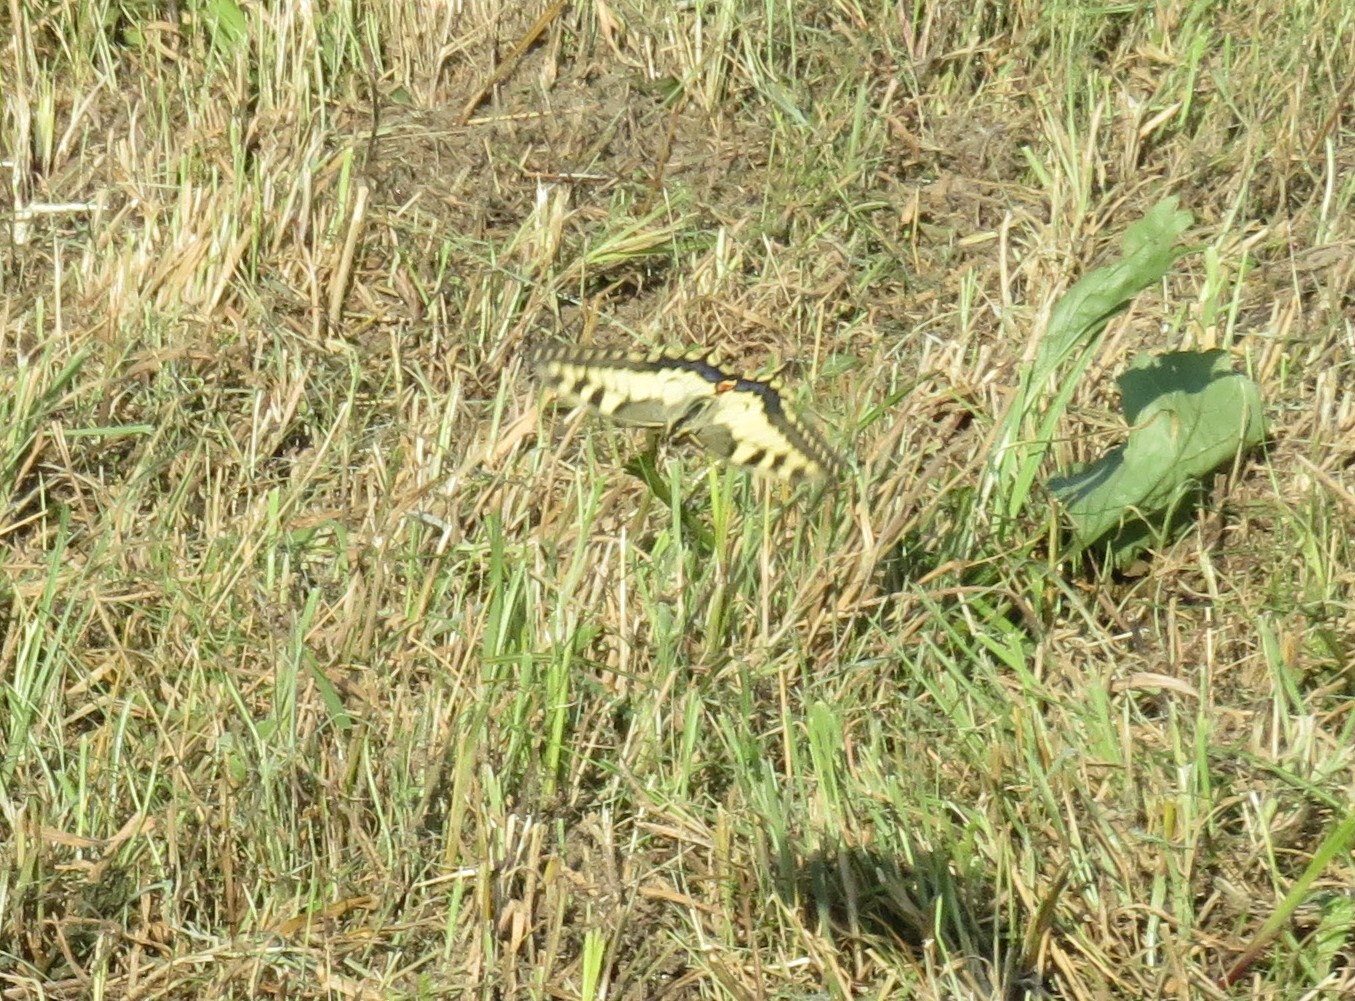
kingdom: Animalia
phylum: Arthropoda
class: Insecta
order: Lepidoptera
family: Papilionidae
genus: Papilio
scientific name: Papilio machaon
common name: Swallowtail
